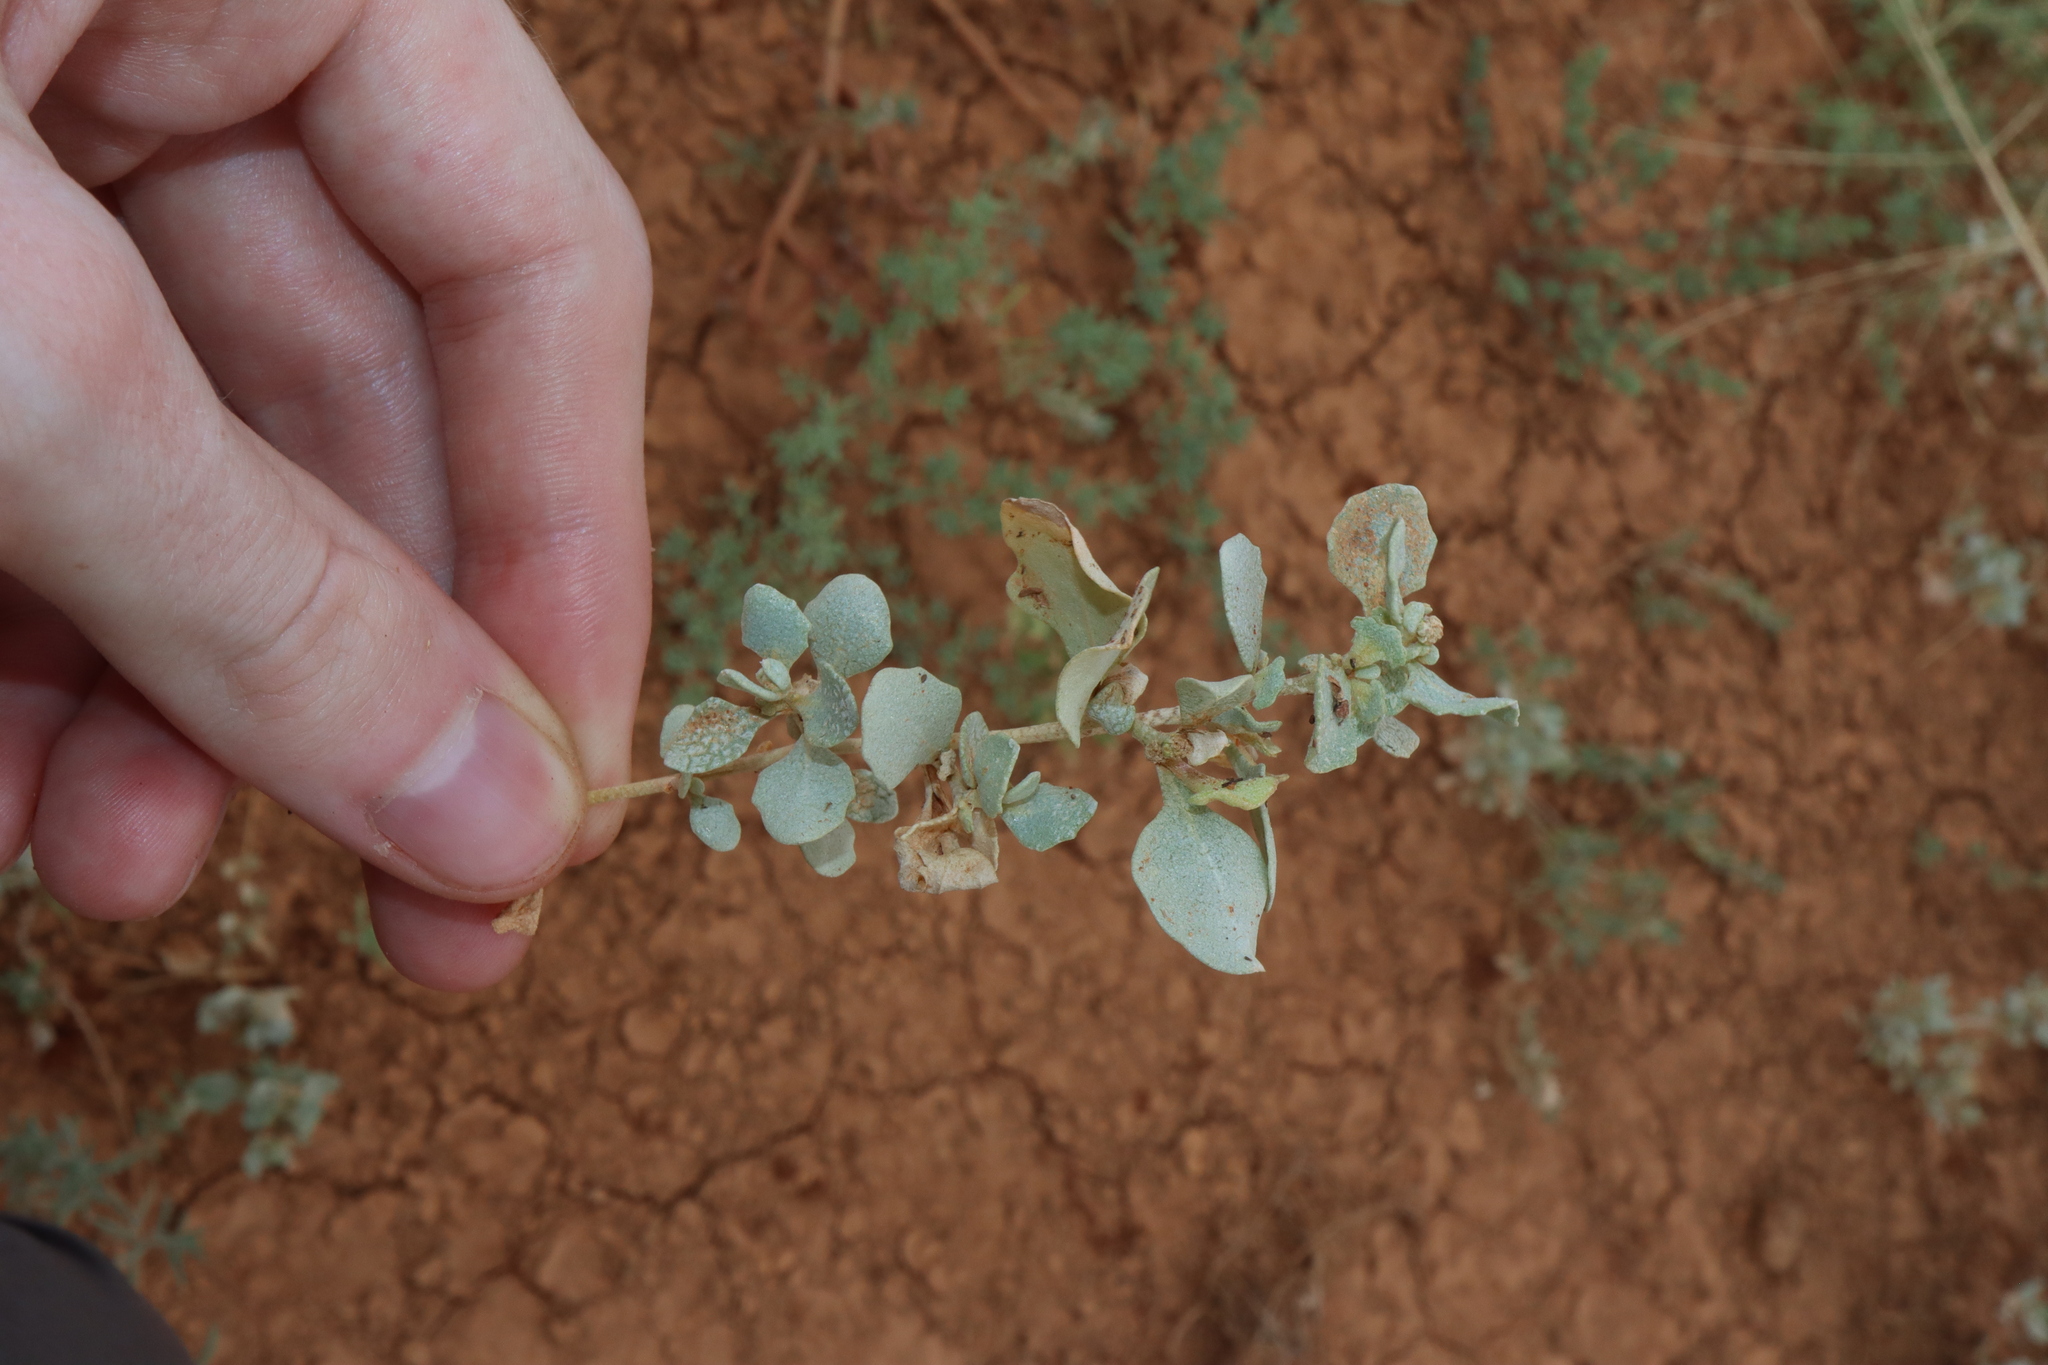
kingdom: Plantae
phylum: Tracheophyta
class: Magnoliopsida
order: Caryophyllales
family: Amaranthaceae
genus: Atriplex
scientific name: Atriplex morrisii
